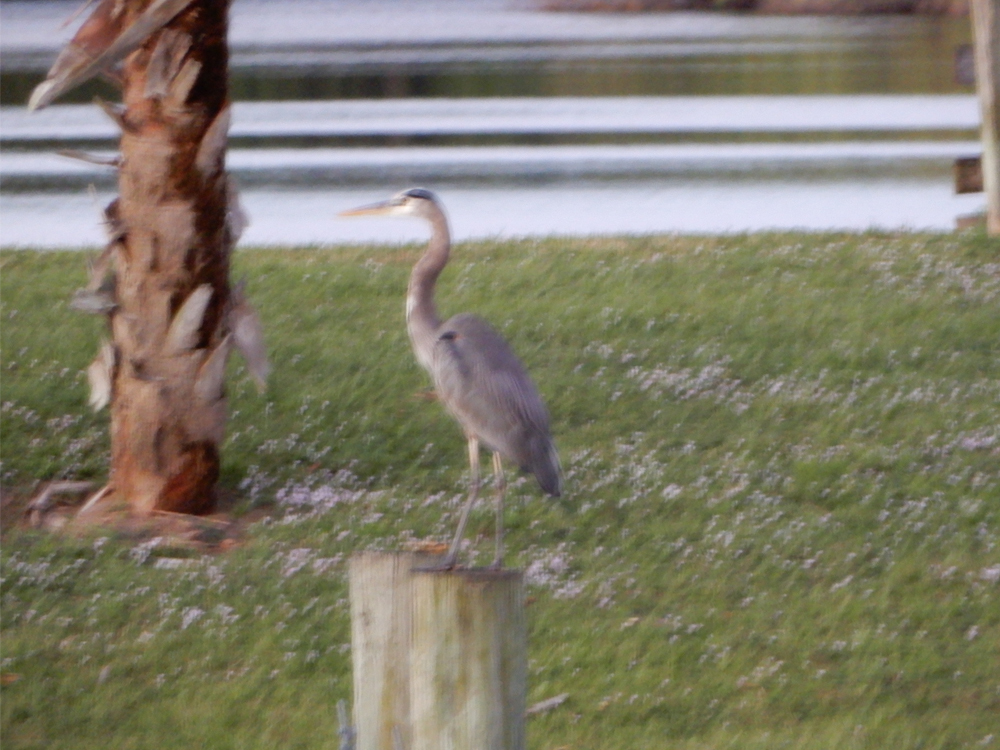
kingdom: Animalia
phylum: Chordata
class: Aves
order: Pelecaniformes
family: Ardeidae
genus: Ardea
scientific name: Ardea herodias
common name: Great blue heron
